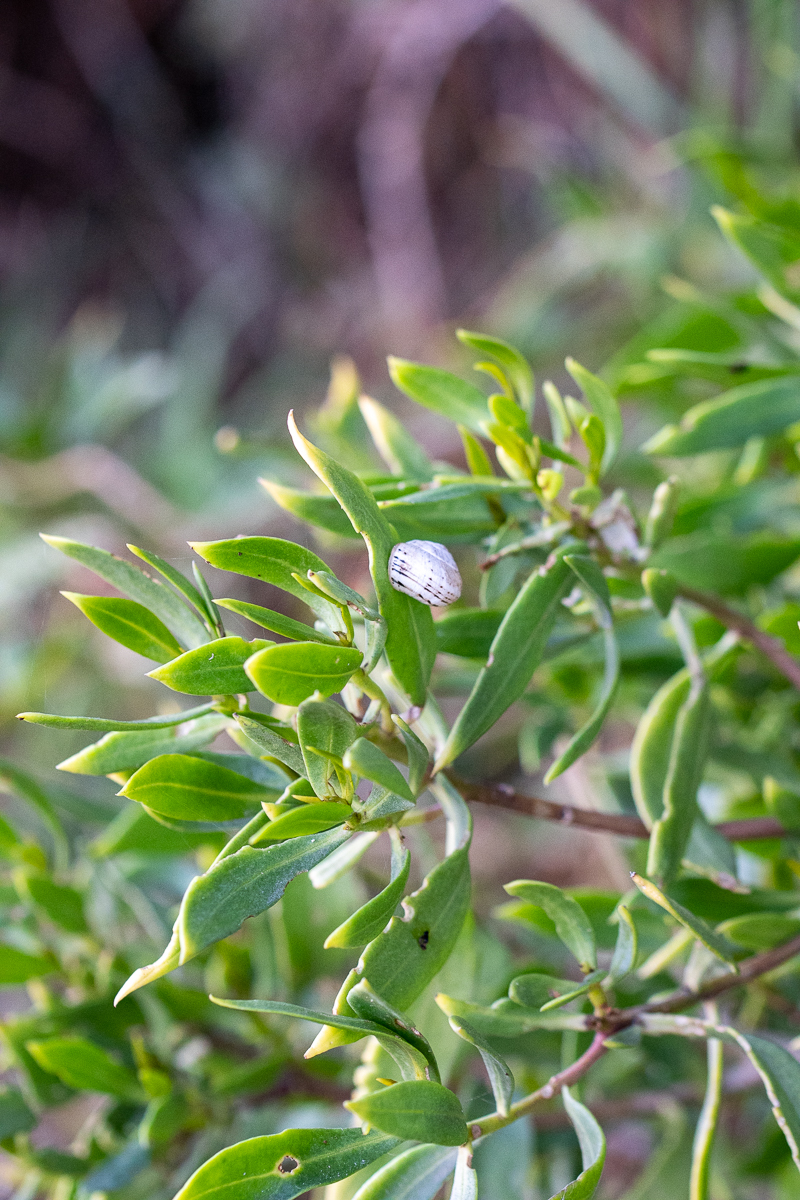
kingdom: Plantae
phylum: Tracheophyta
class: Magnoliopsida
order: Lamiales
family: Scrophulariaceae
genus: Myoporum
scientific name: Myoporum montanum
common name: Waterbush
